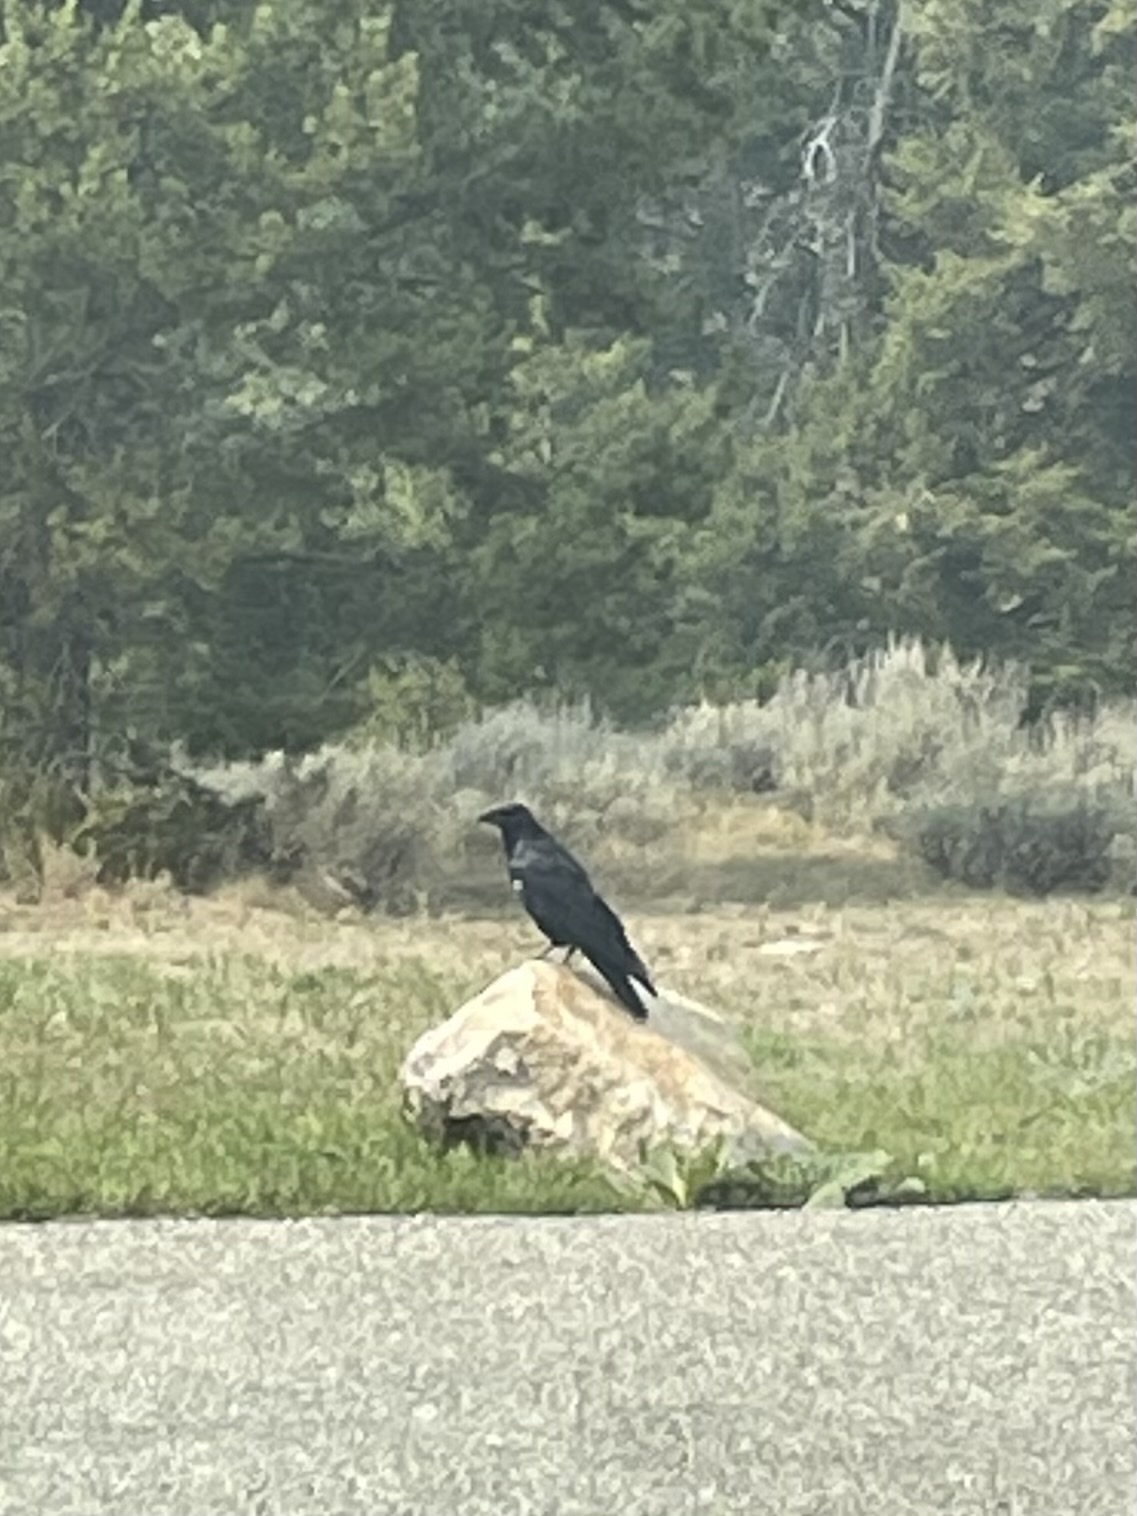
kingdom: Animalia
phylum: Chordata
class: Aves
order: Passeriformes
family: Corvidae
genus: Corvus
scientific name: Corvus corax
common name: Common raven
